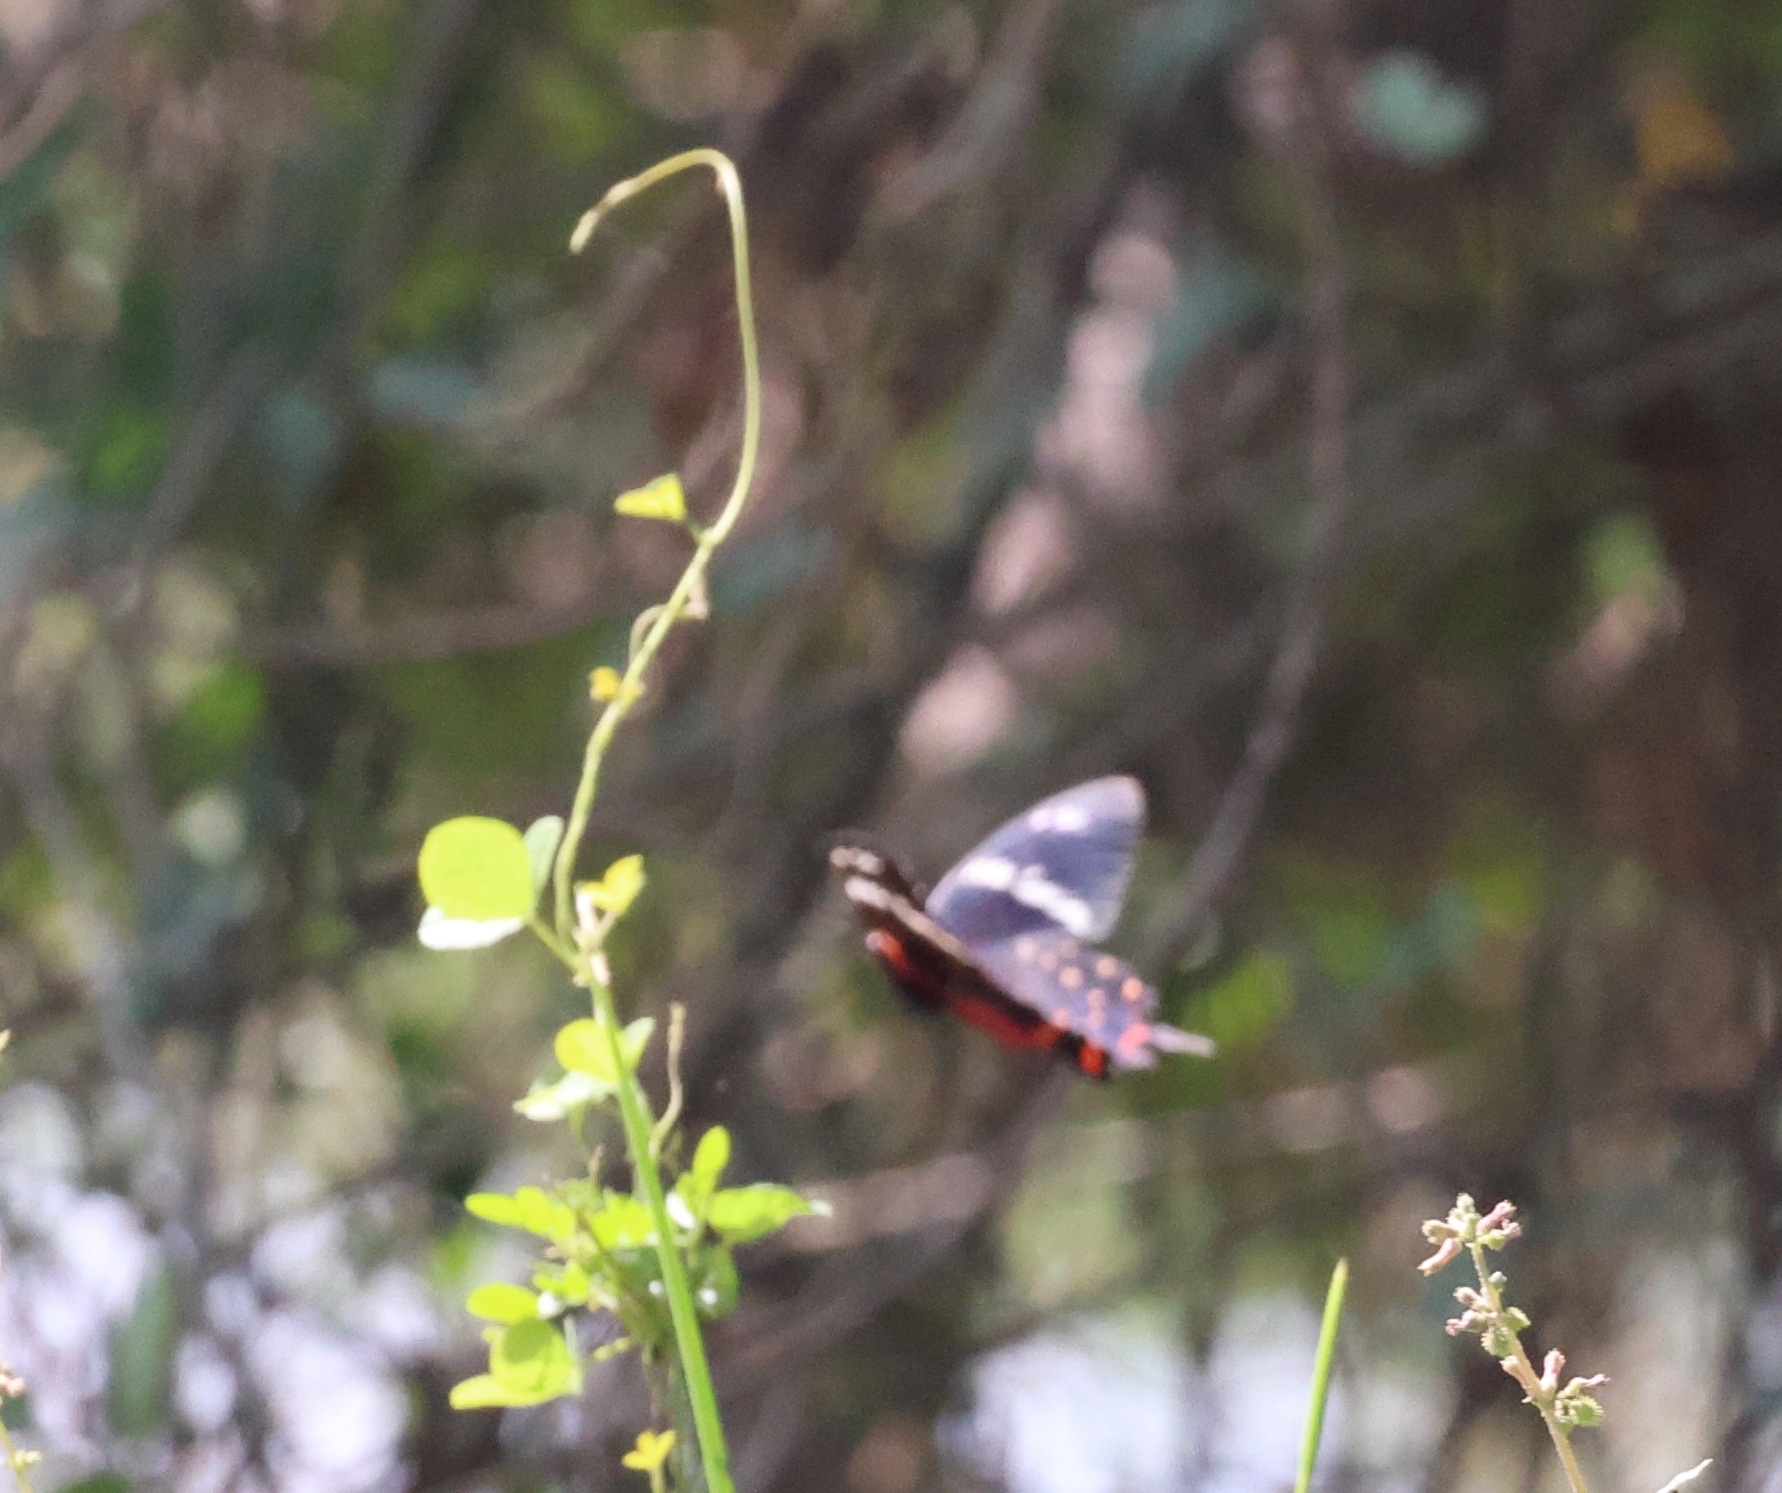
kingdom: Animalia
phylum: Arthropoda
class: Insecta
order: Lepidoptera
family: Papilionidae
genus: Pachliopta
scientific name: Pachliopta hector
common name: Crimson rose
